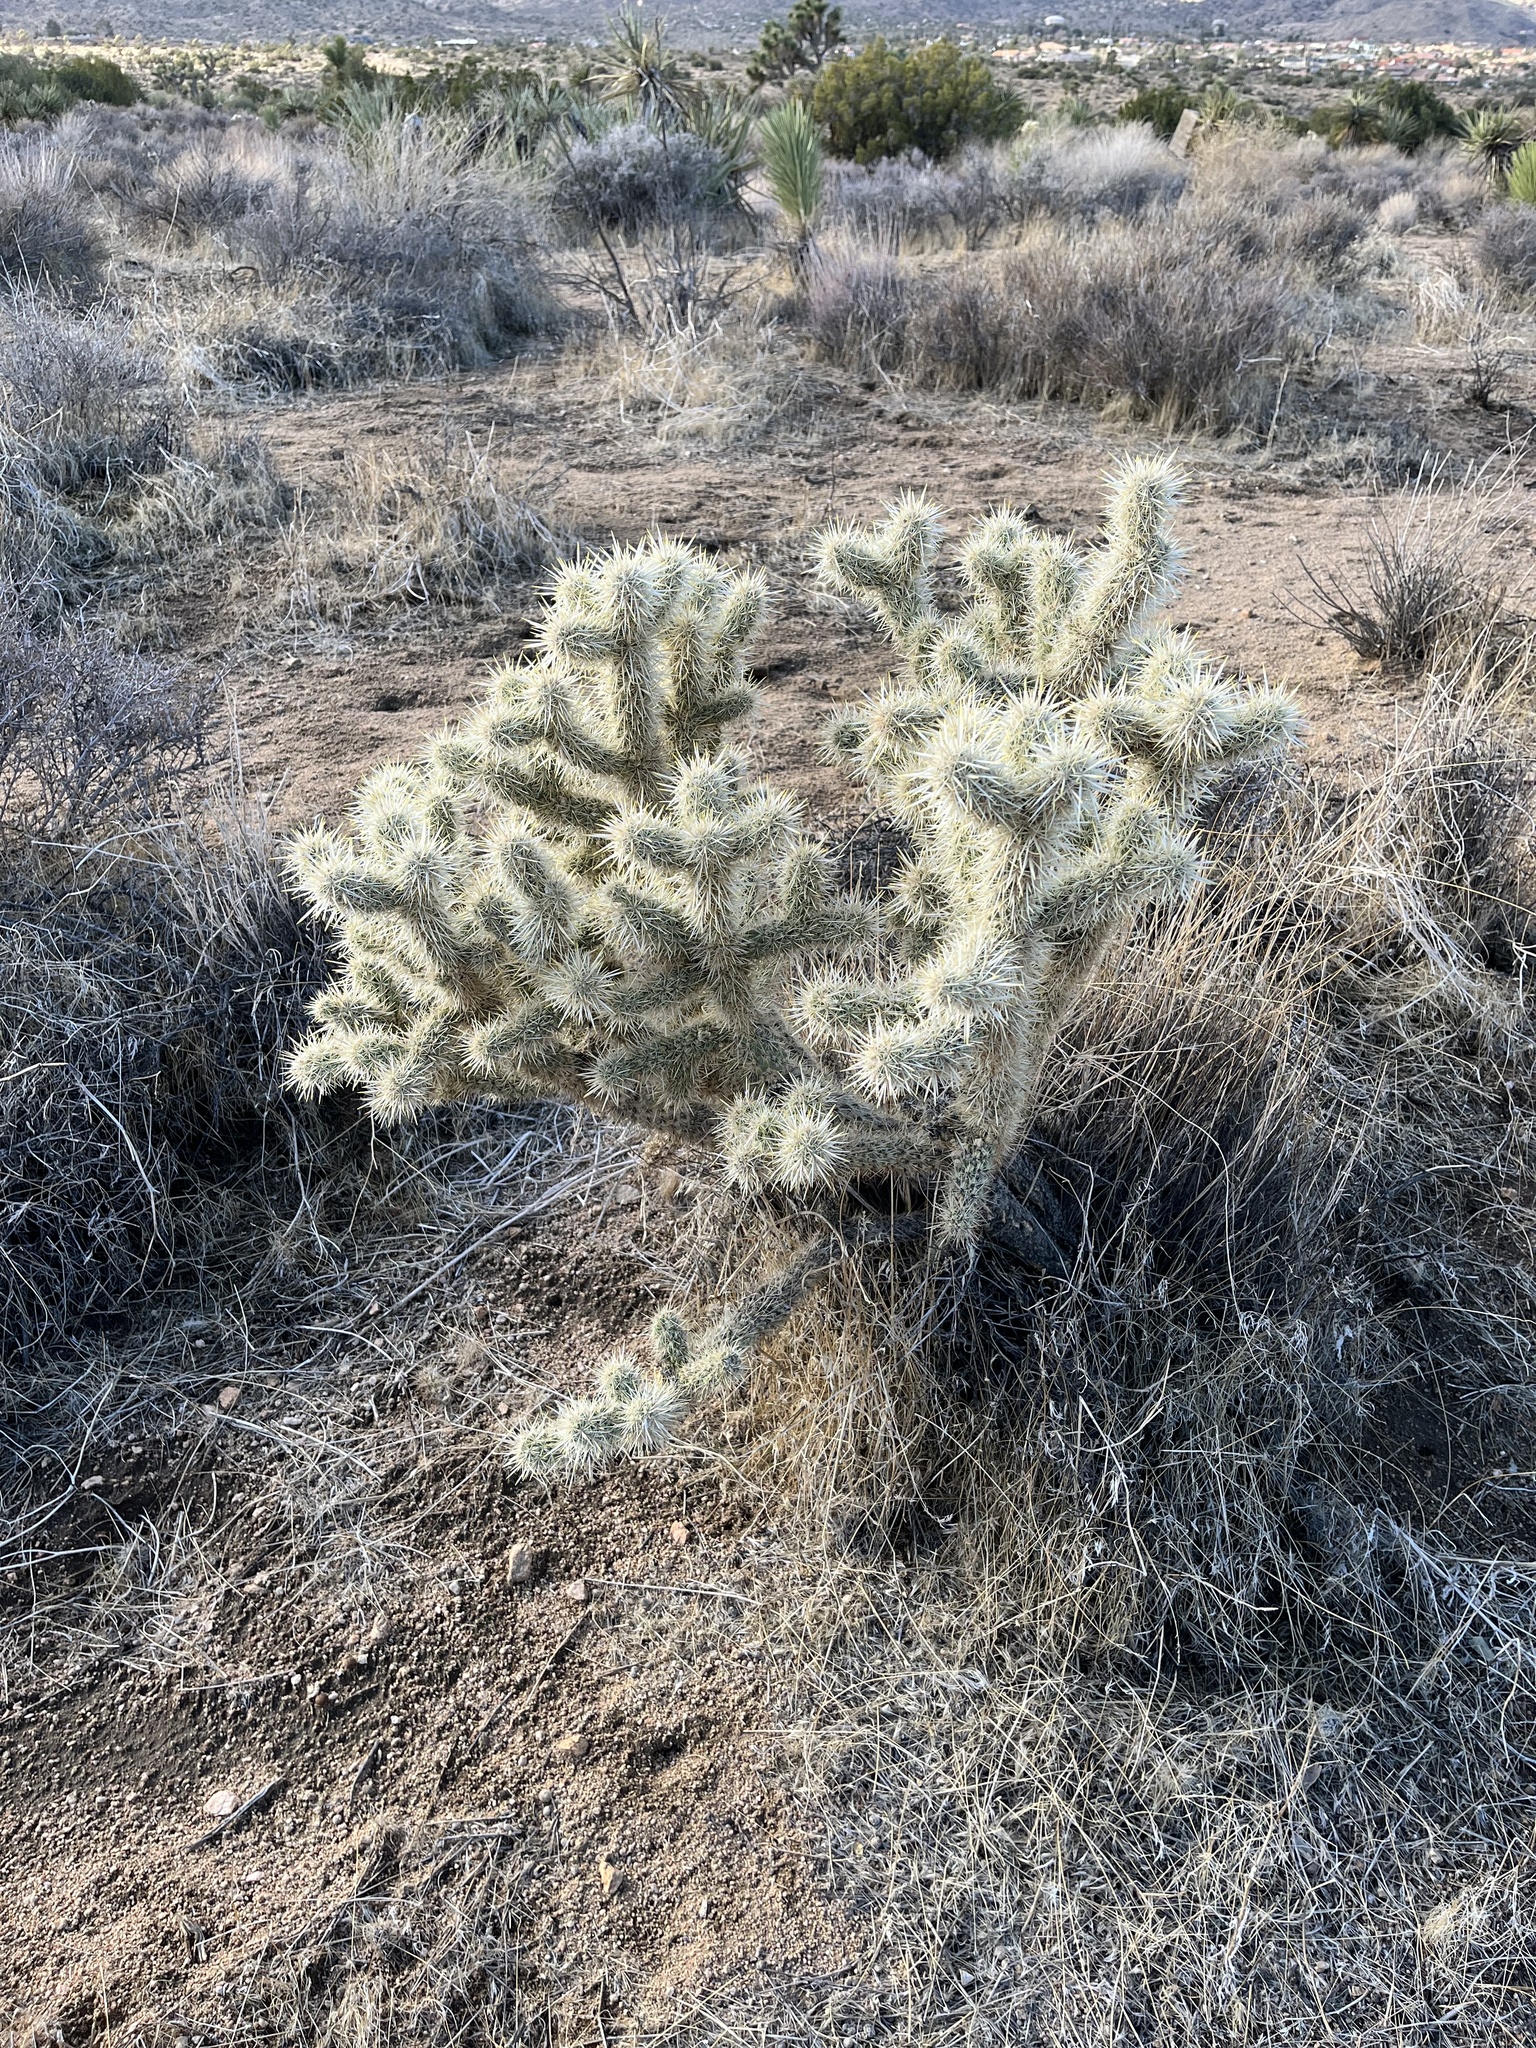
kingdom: Plantae
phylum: Tracheophyta
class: Magnoliopsida
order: Caryophyllales
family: Cactaceae
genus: Cylindropuntia
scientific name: Cylindropuntia echinocarpa
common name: Ground cholla
